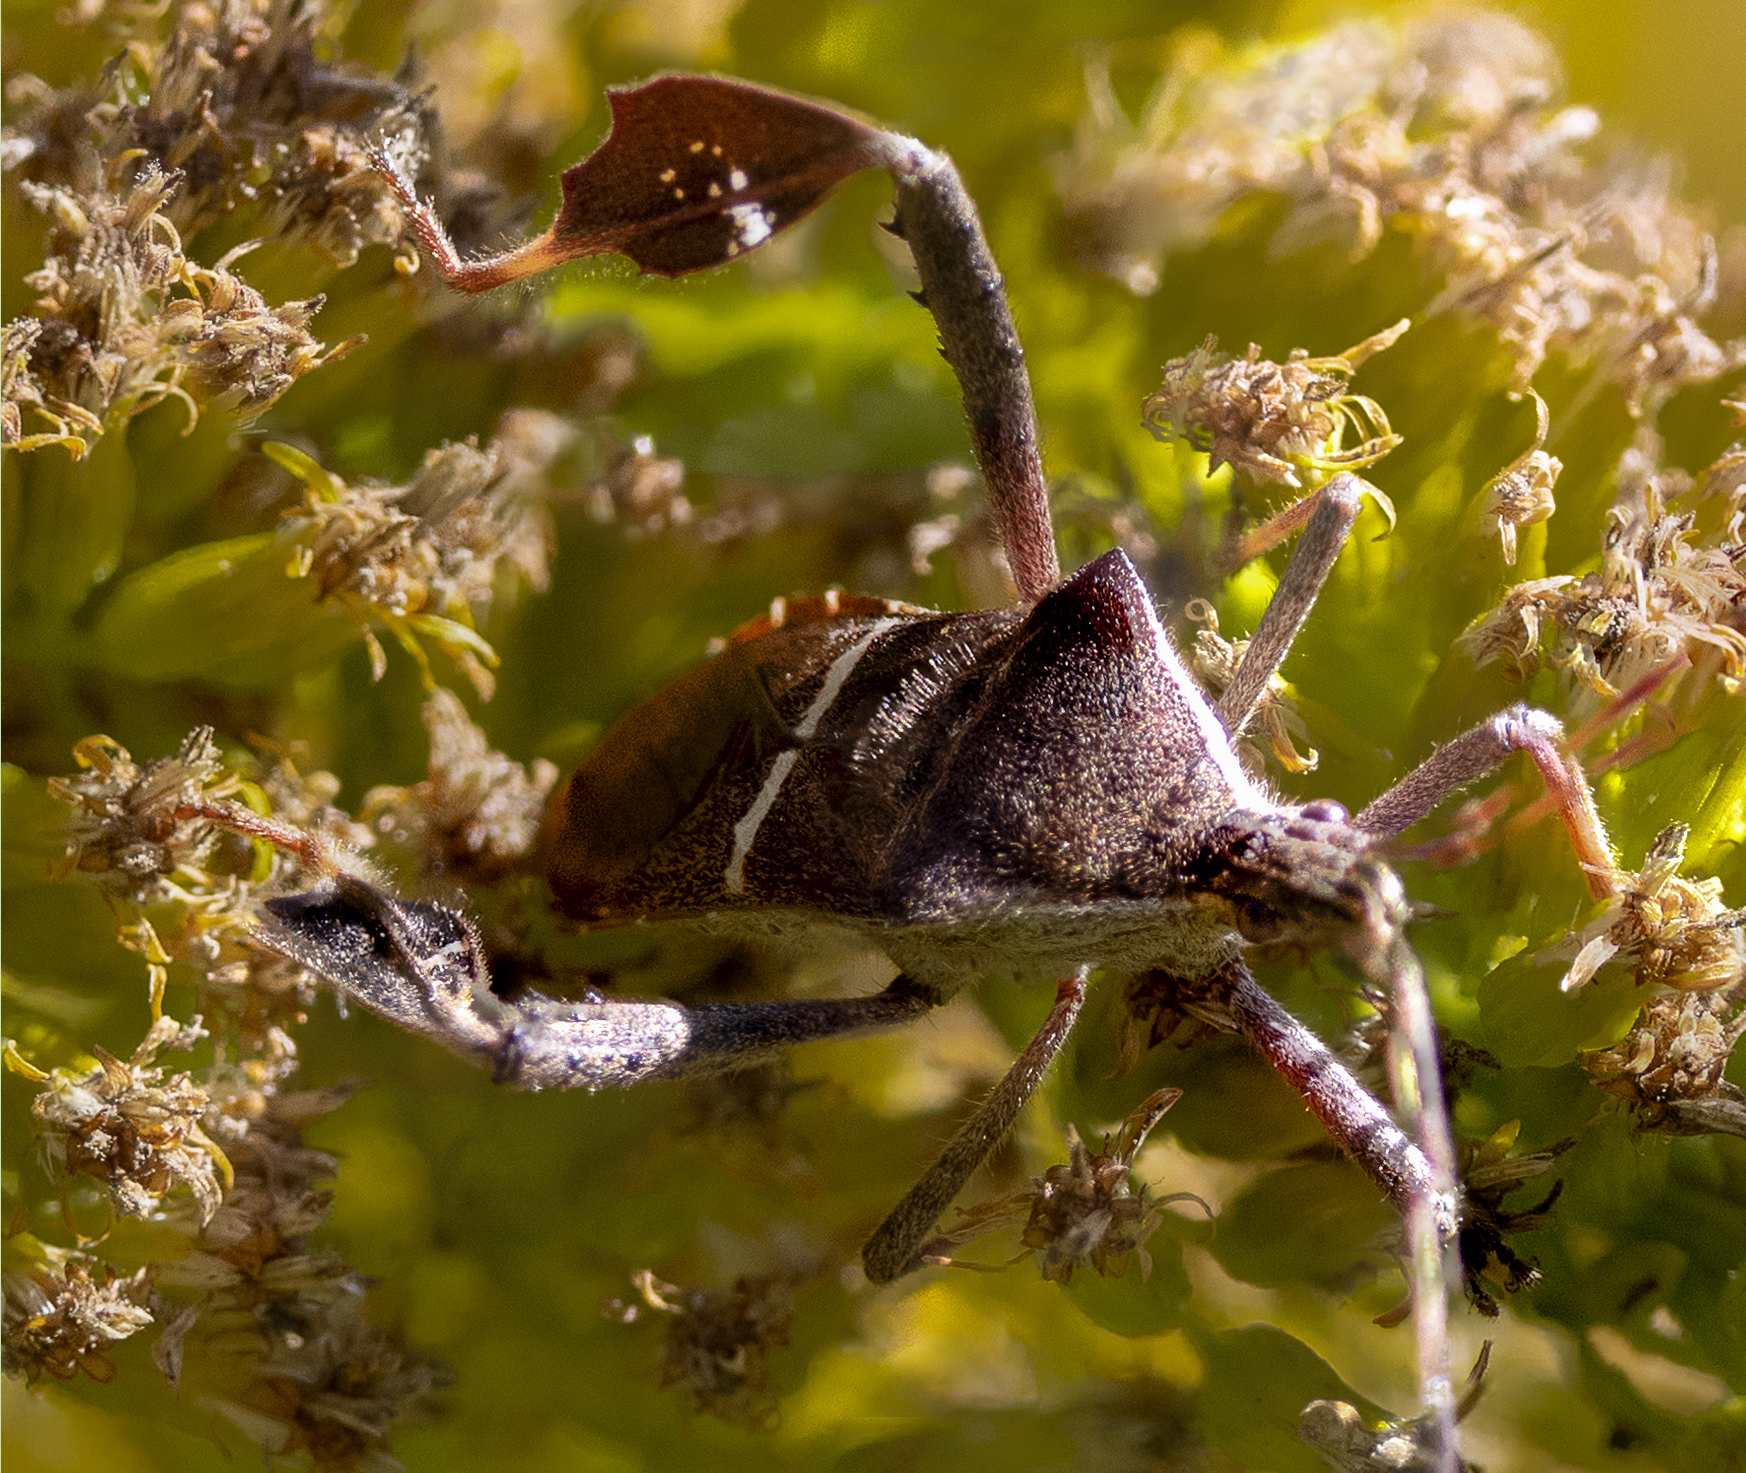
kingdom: Animalia
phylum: Arthropoda
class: Insecta
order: Hemiptera
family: Coreidae
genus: Leptoglossus
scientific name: Leptoglossus phyllopus
